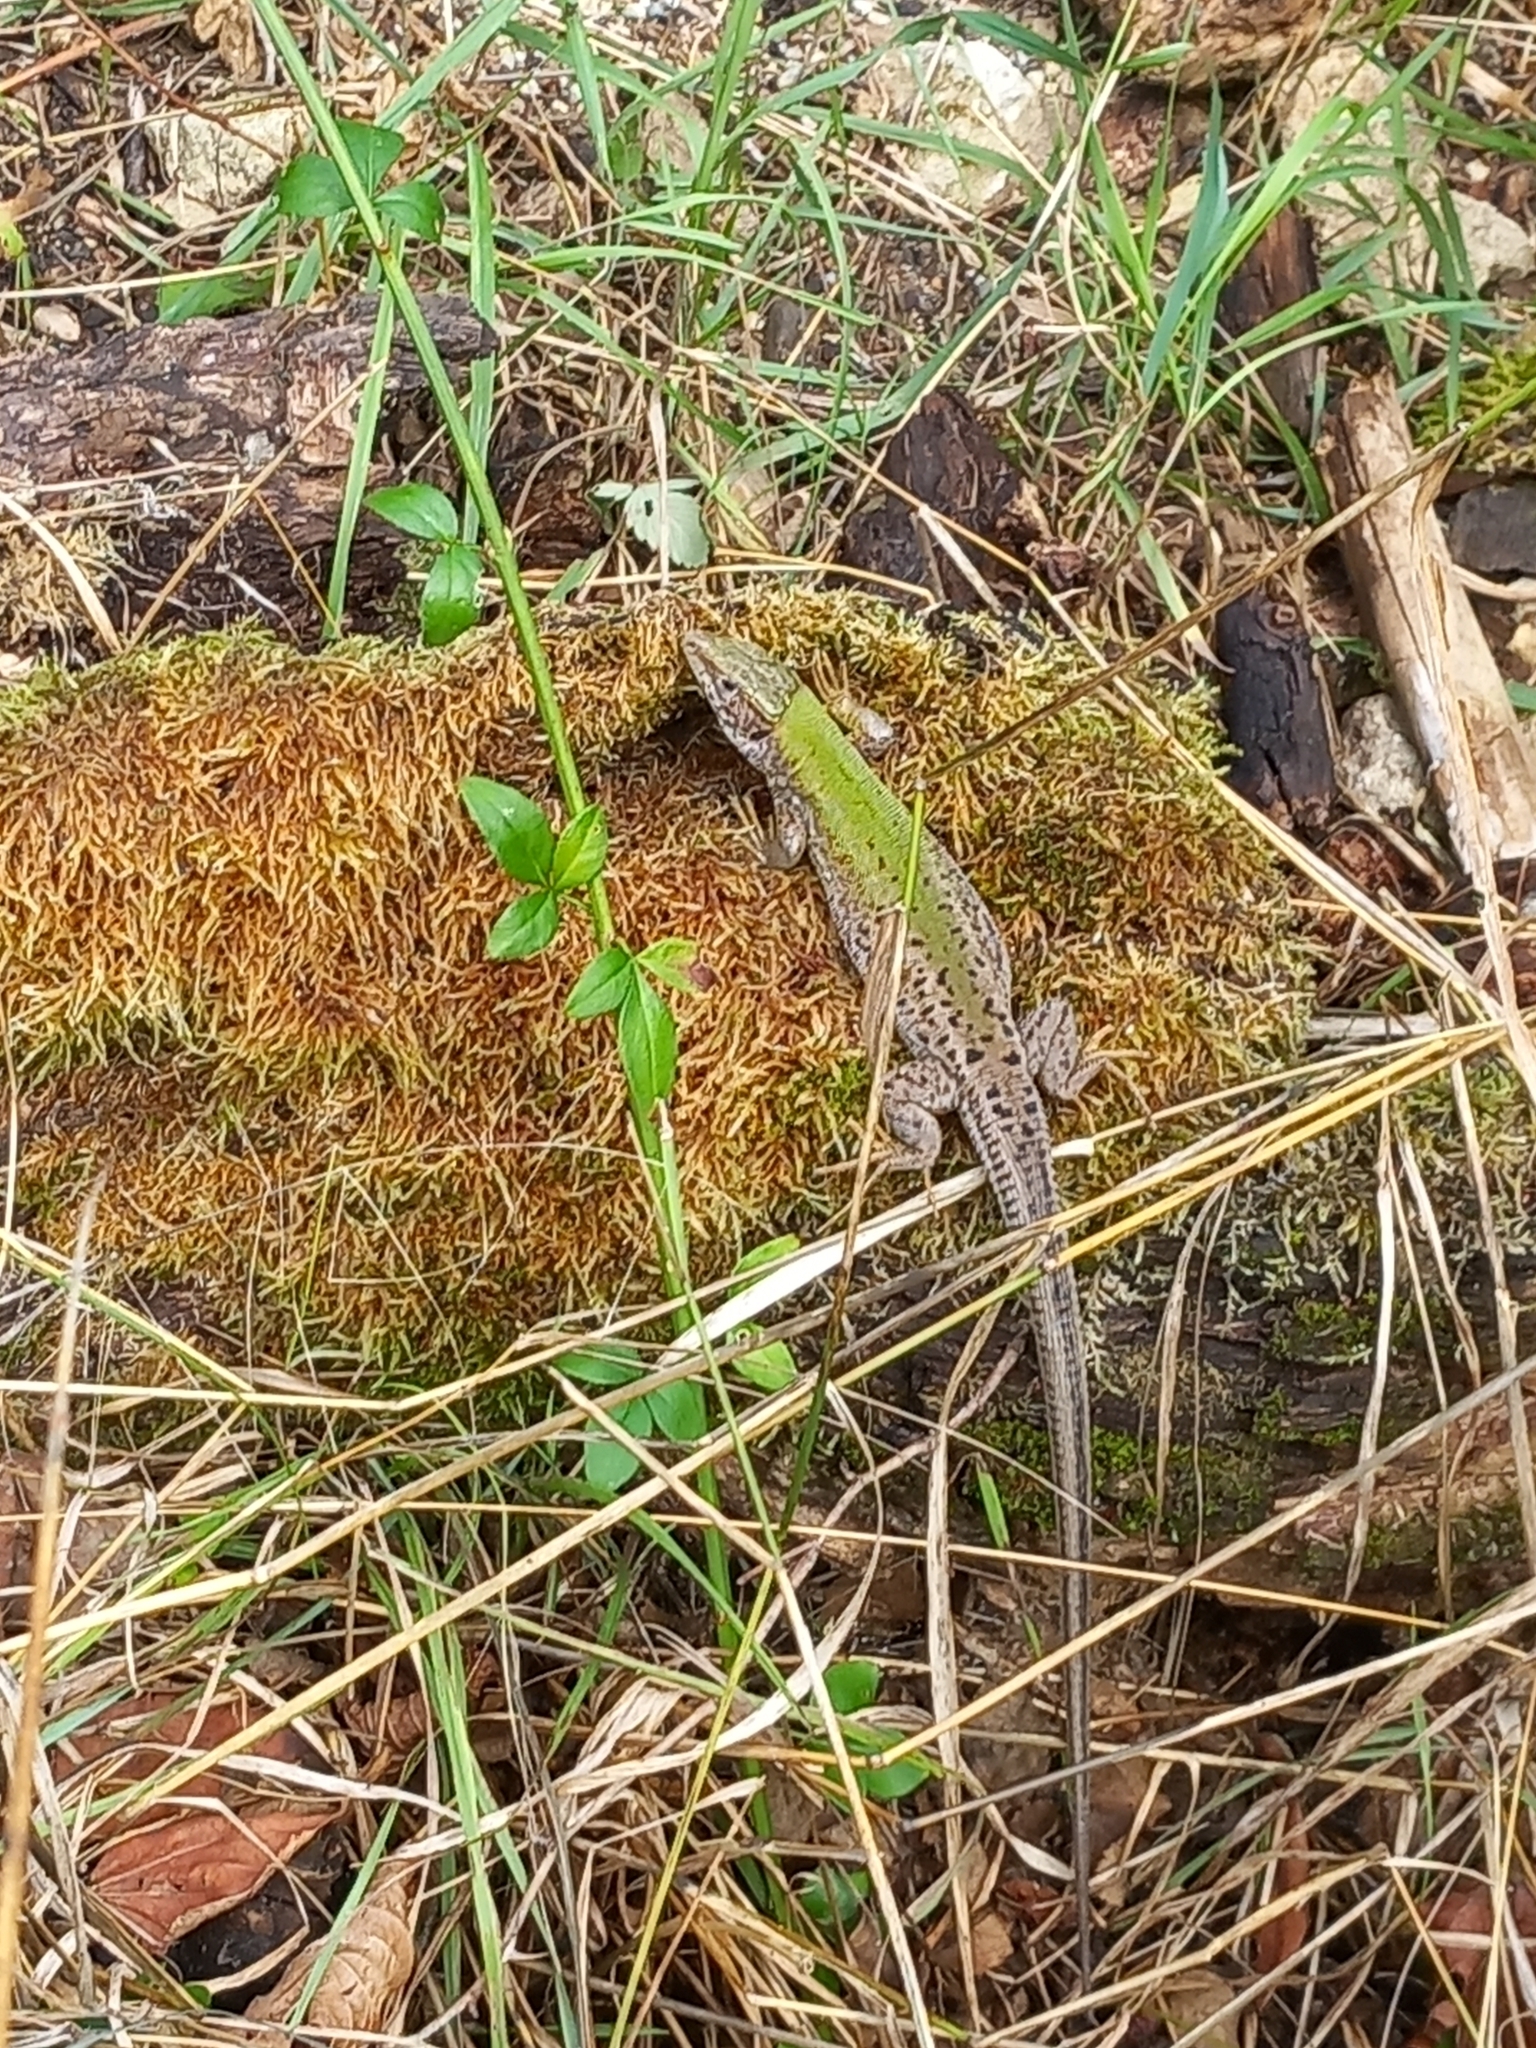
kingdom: Animalia
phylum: Chordata
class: Squamata
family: Lacertidae
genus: Lacerta
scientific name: Lacerta viridis
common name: European green lizard
